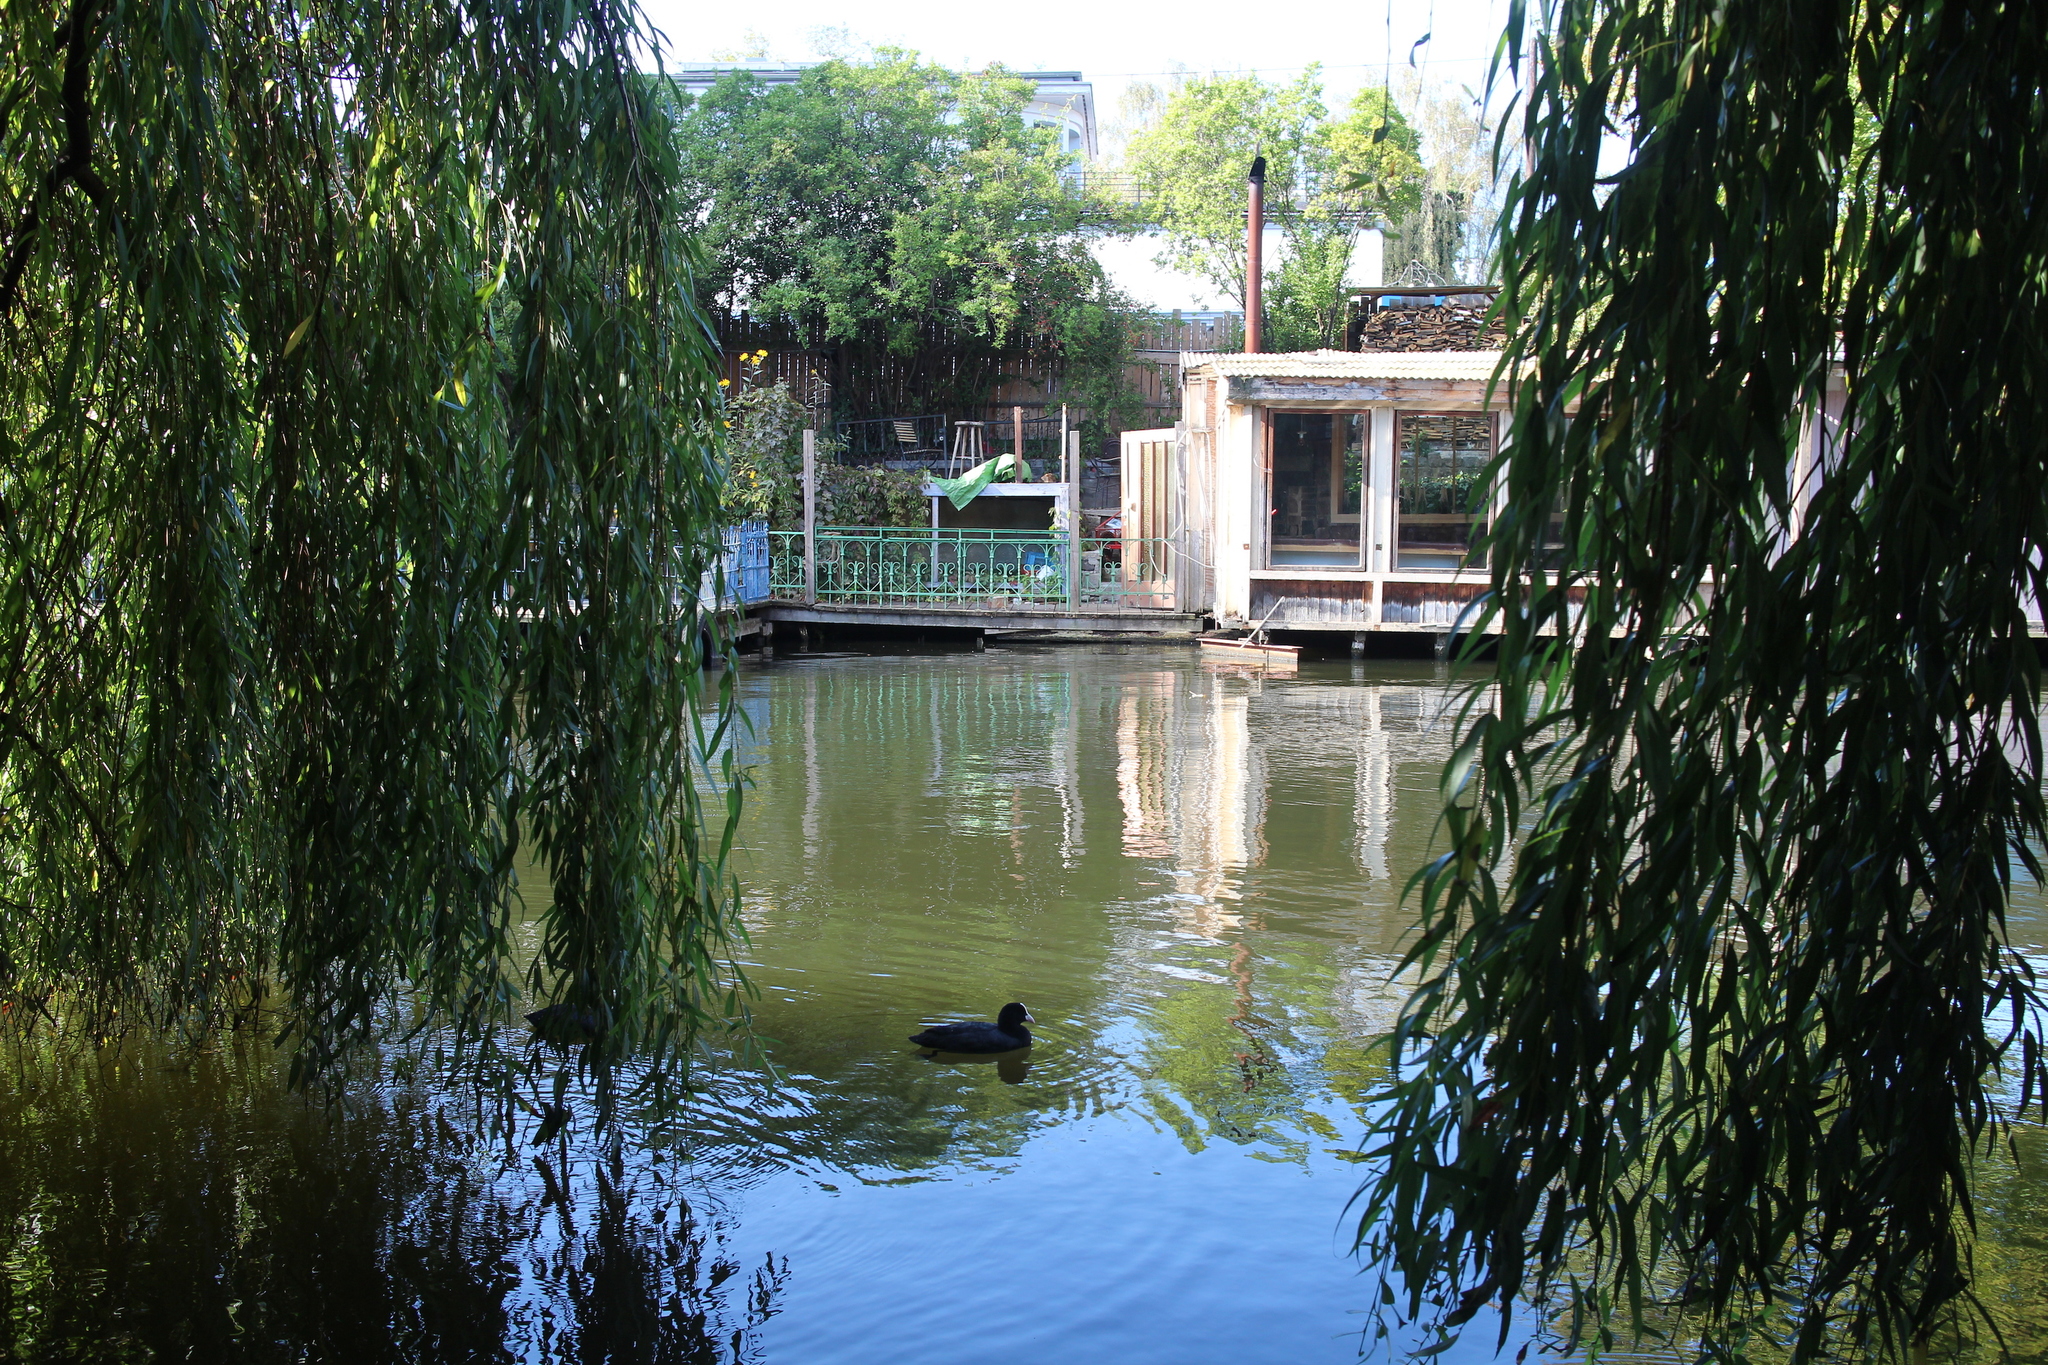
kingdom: Animalia
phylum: Chordata
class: Aves
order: Gruiformes
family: Rallidae
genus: Fulica
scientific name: Fulica atra
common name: Eurasian coot
